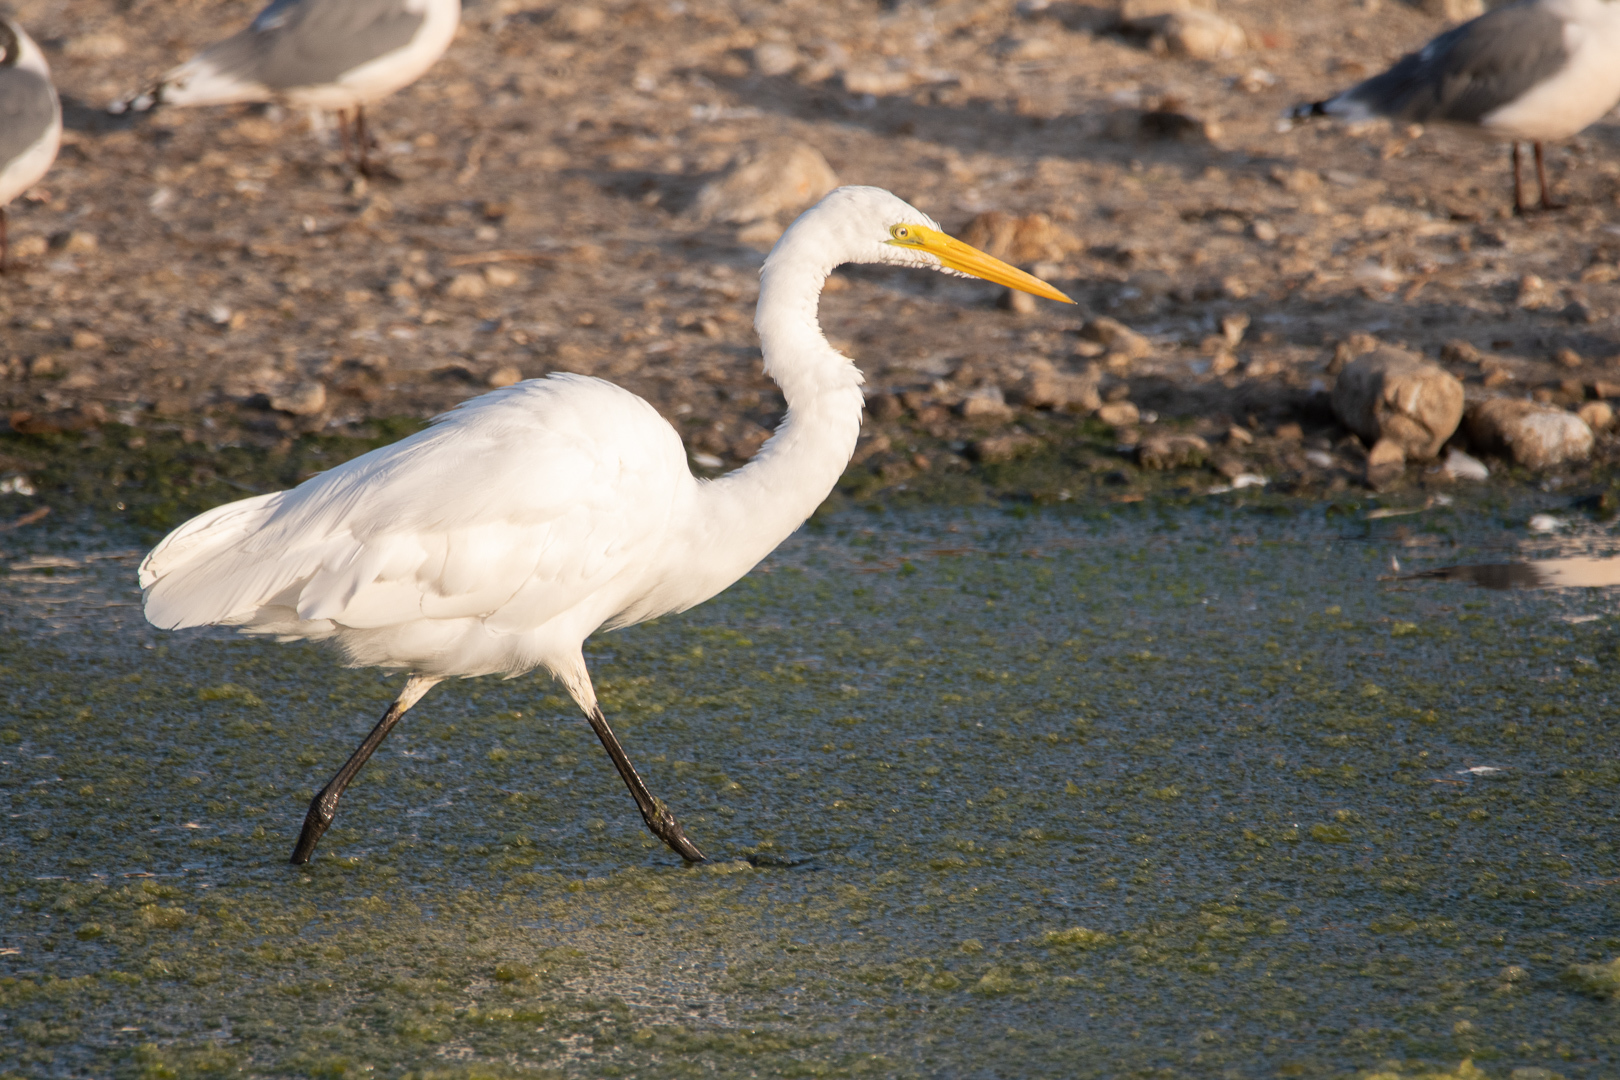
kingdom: Animalia
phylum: Chordata
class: Aves
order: Pelecaniformes
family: Ardeidae
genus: Ardea
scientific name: Ardea alba
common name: Great egret
